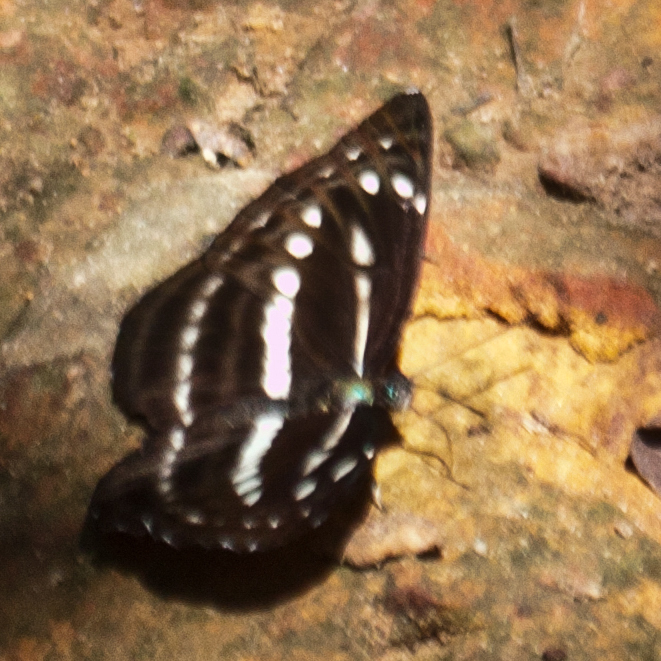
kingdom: Animalia
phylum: Arthropoda
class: Insecta
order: Lepidoptera
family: Nymphalidae
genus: Neptis
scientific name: Neptis nata
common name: Sullied brown sailer
